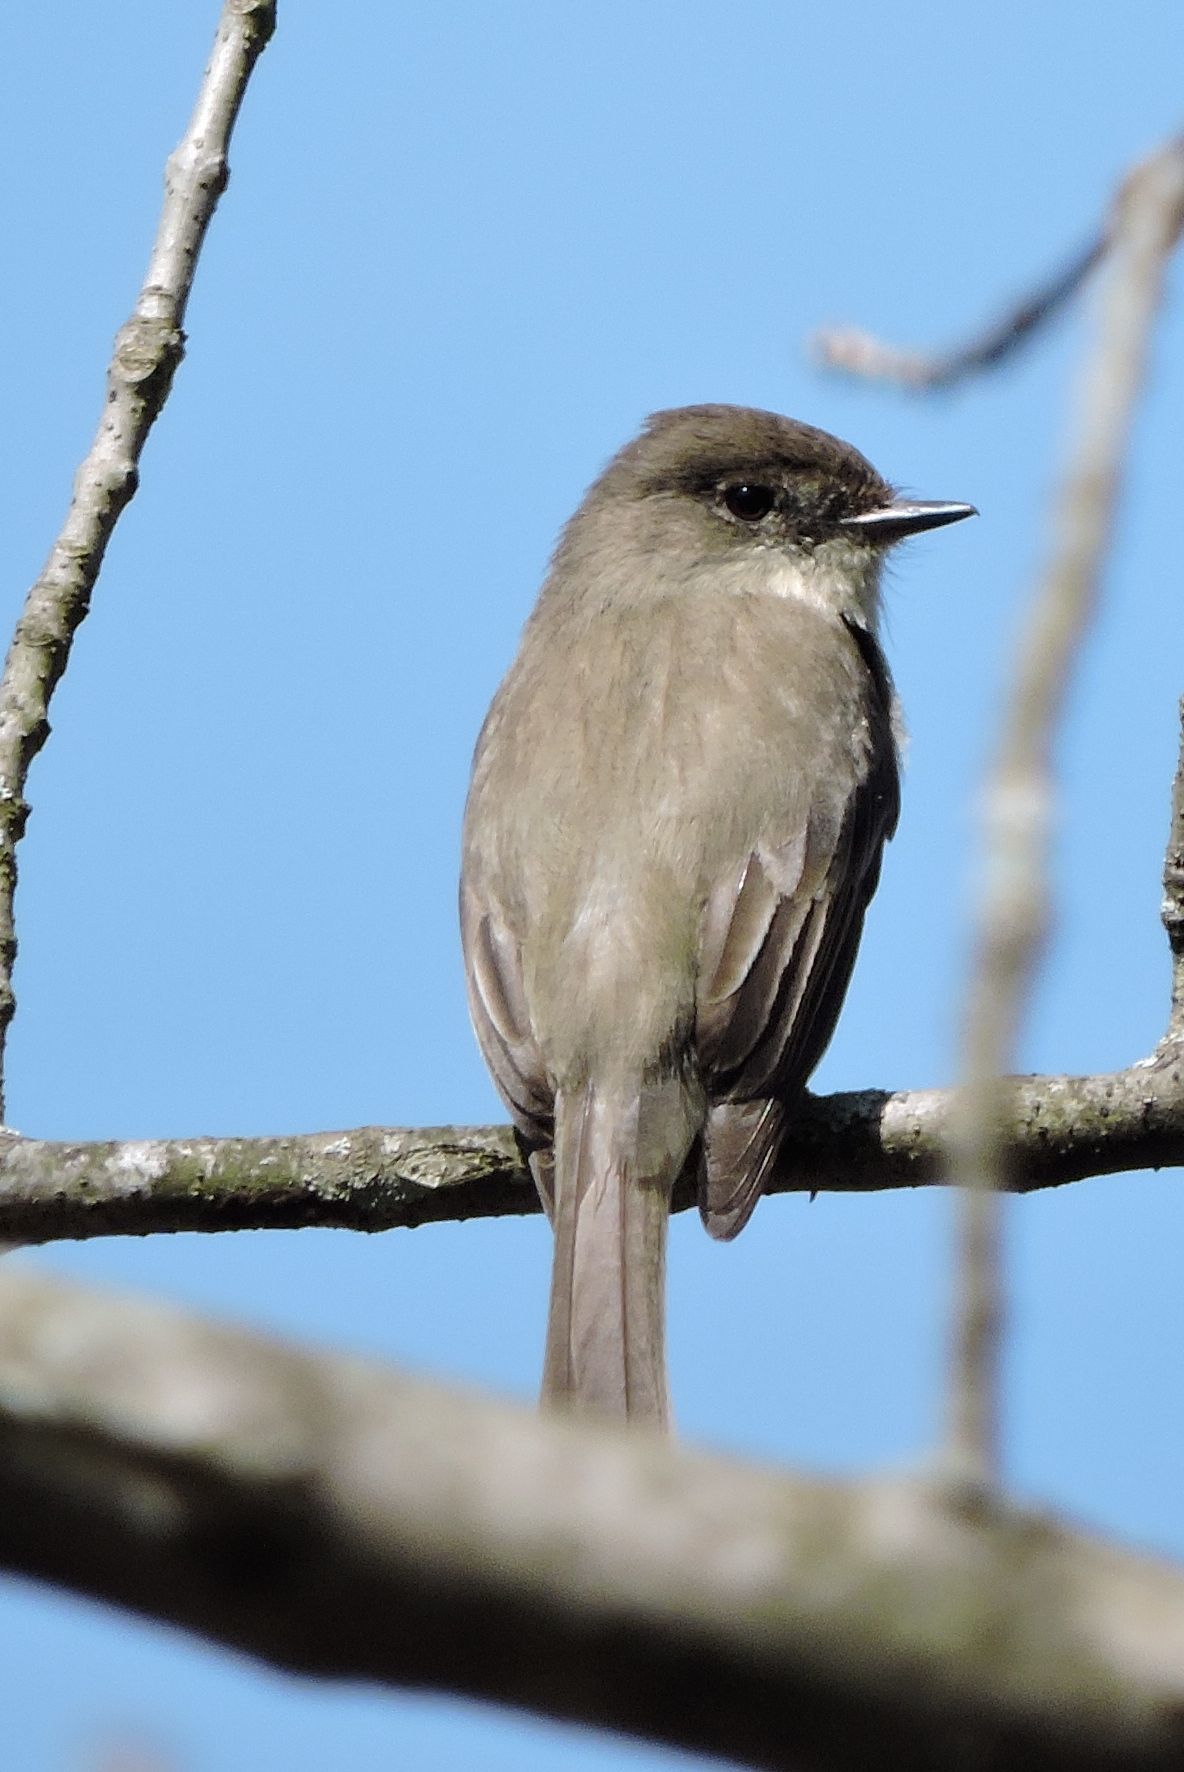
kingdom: Animalia
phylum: Chordata
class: Aves
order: Passeriformes
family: Tyrannidae
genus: Sayornis
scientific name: Sayornis phoebe
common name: Eastern phoebe
